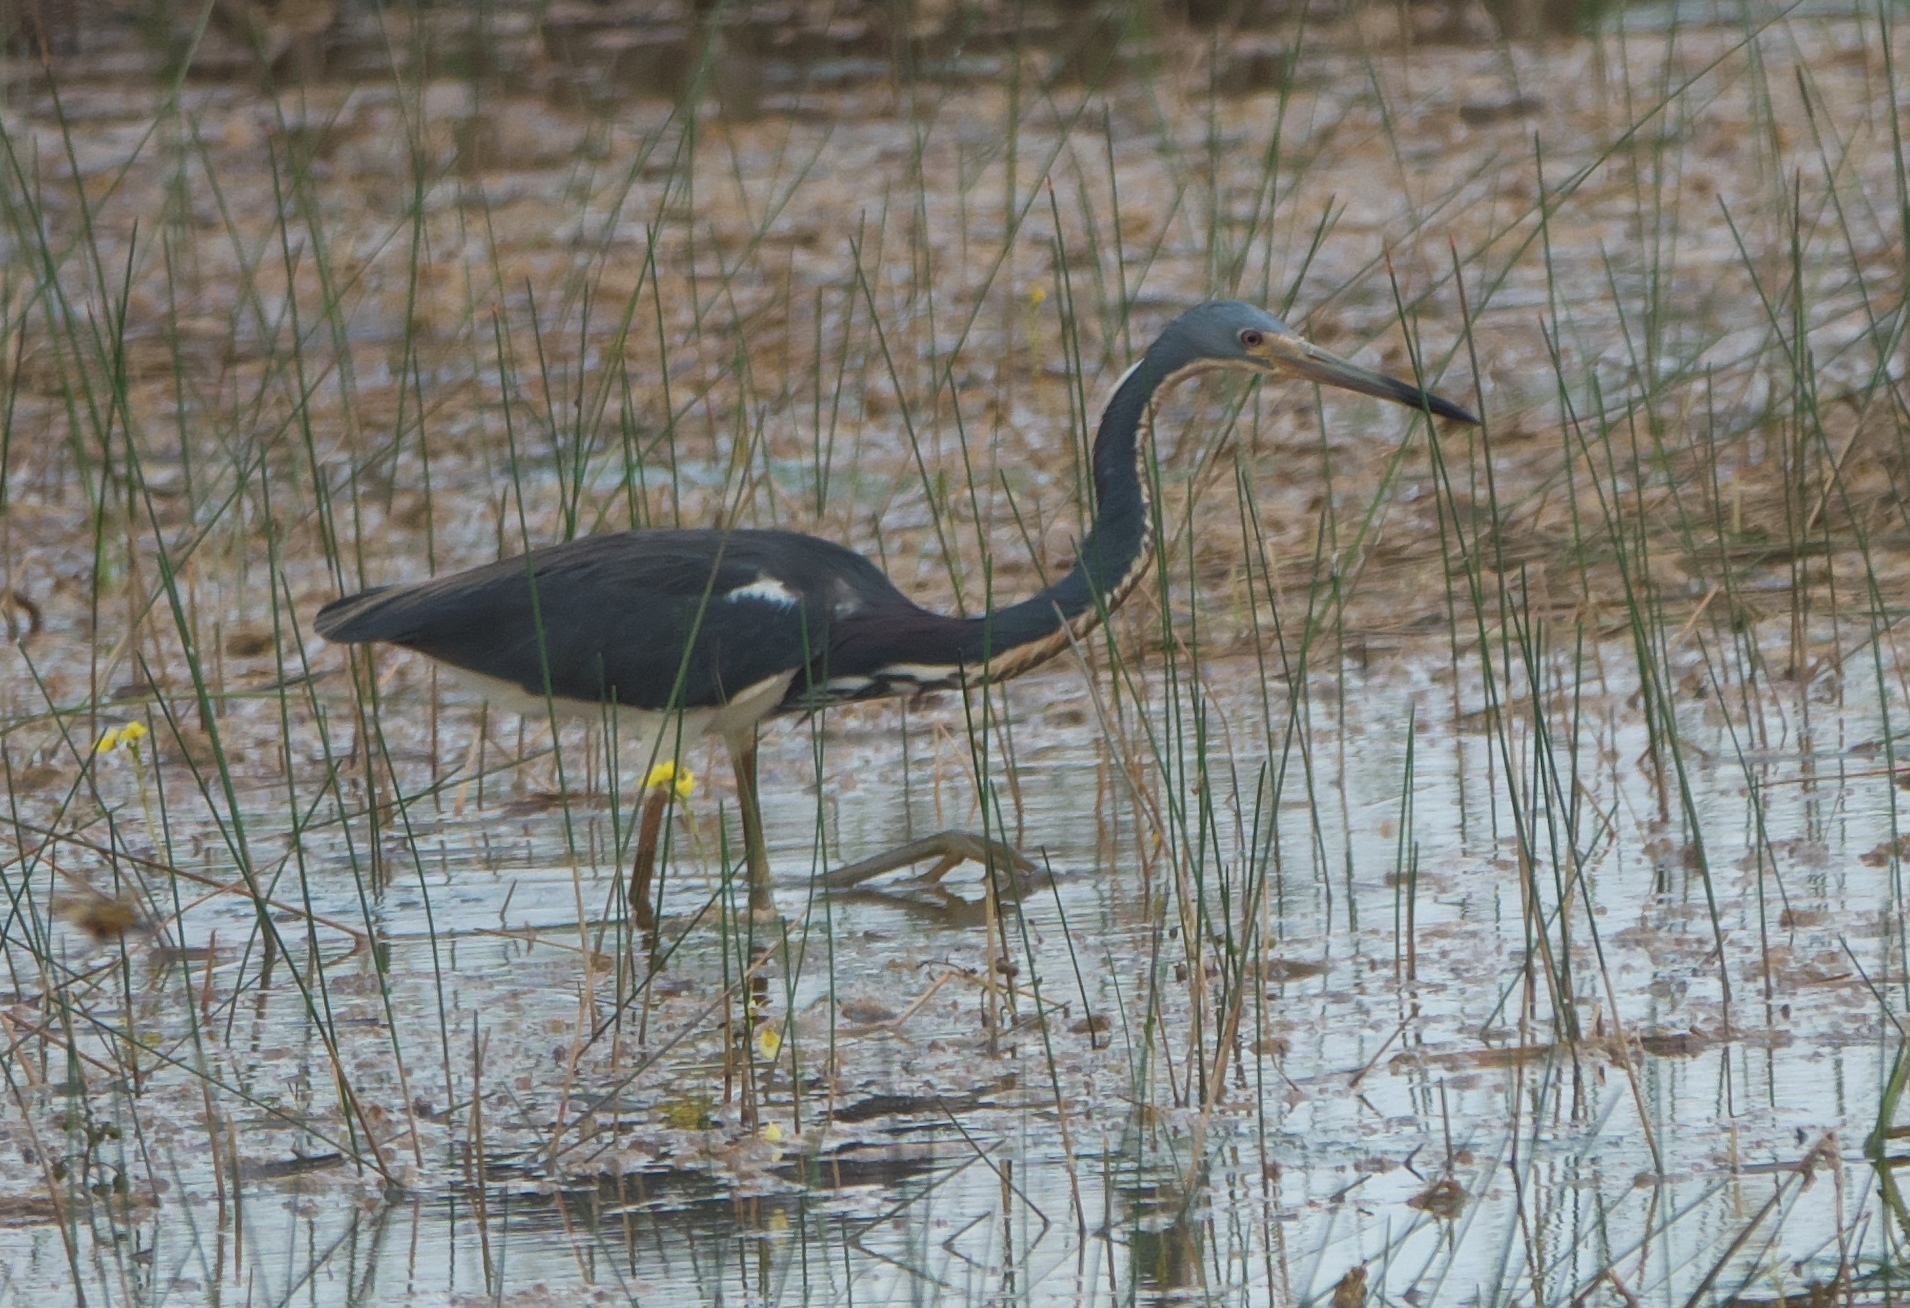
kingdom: Animalia
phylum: Chordata
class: Aves
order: Pelecaniformes
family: Ardeidae
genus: Egretta
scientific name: Egretta tricolor
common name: Tricolored heron
